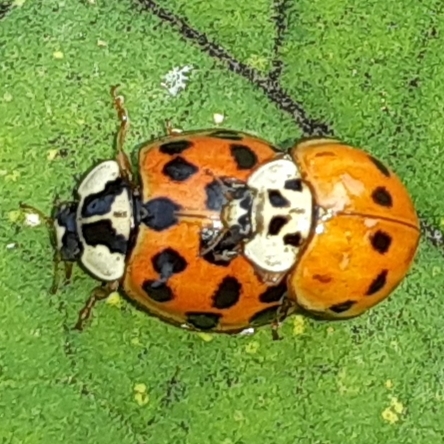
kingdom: Animalia
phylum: Arthropoda
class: Insecta
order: Coleoptera
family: Coccinellidae
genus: Harmonia
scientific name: Harmonia axyridis
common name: Harlequin ladybird
